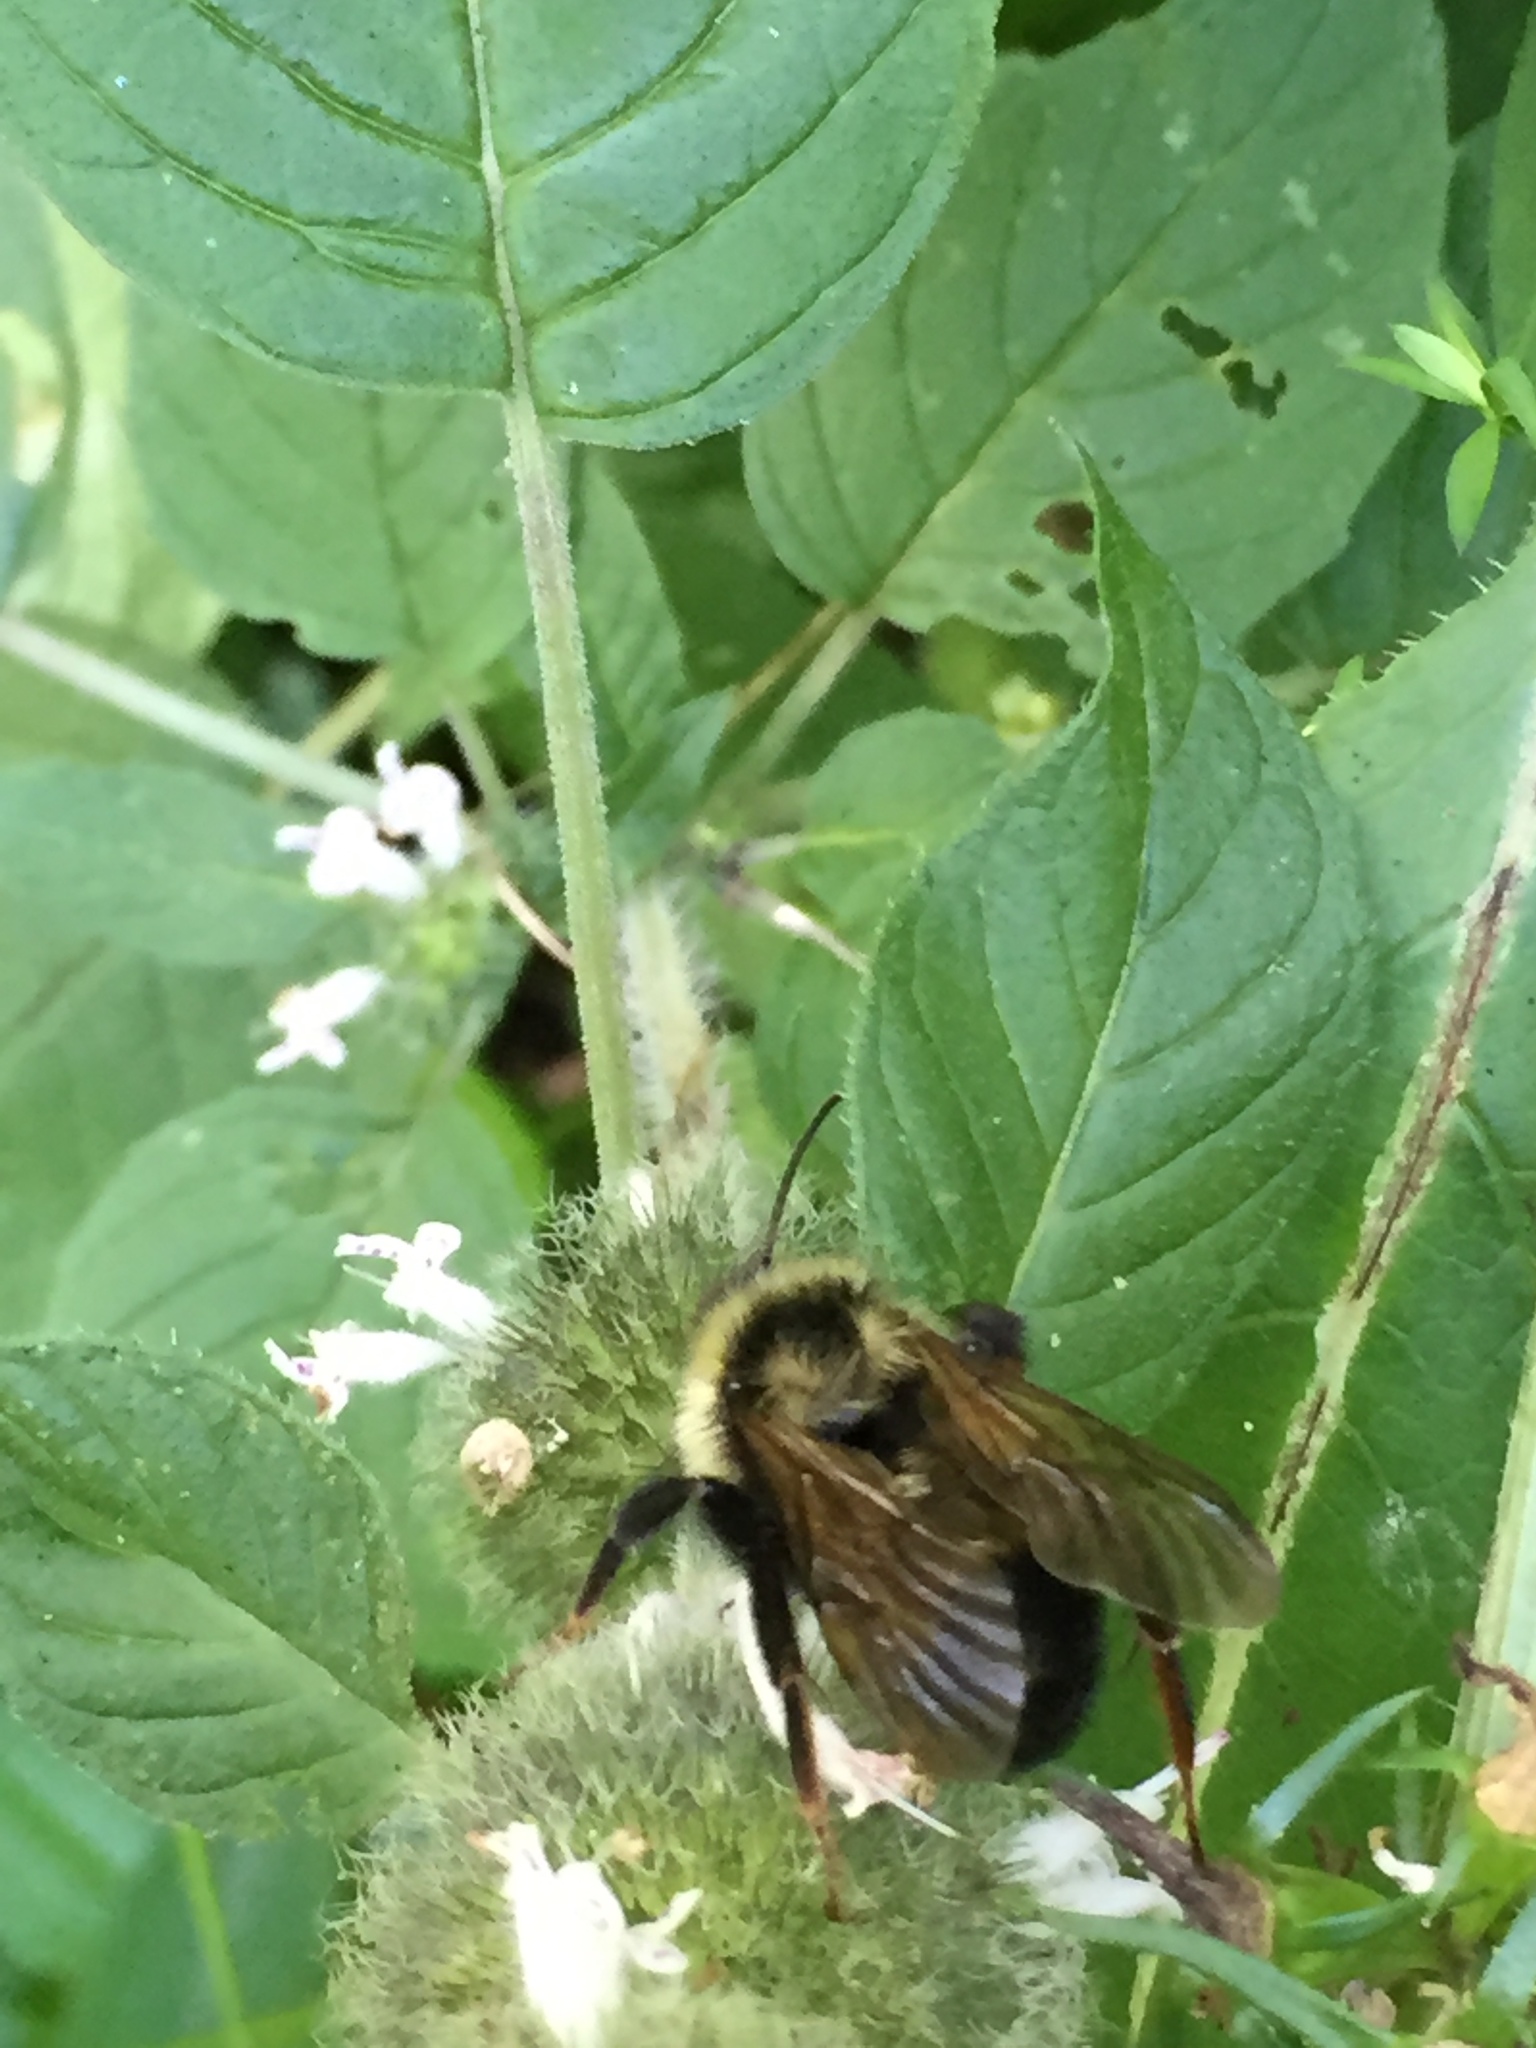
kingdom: Animalia
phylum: Arthropoda
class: Insecta
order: Hymenoptera
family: Apidae
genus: Bombus
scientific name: Bombus citrinus
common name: Lemon cuckoo bumble bee
